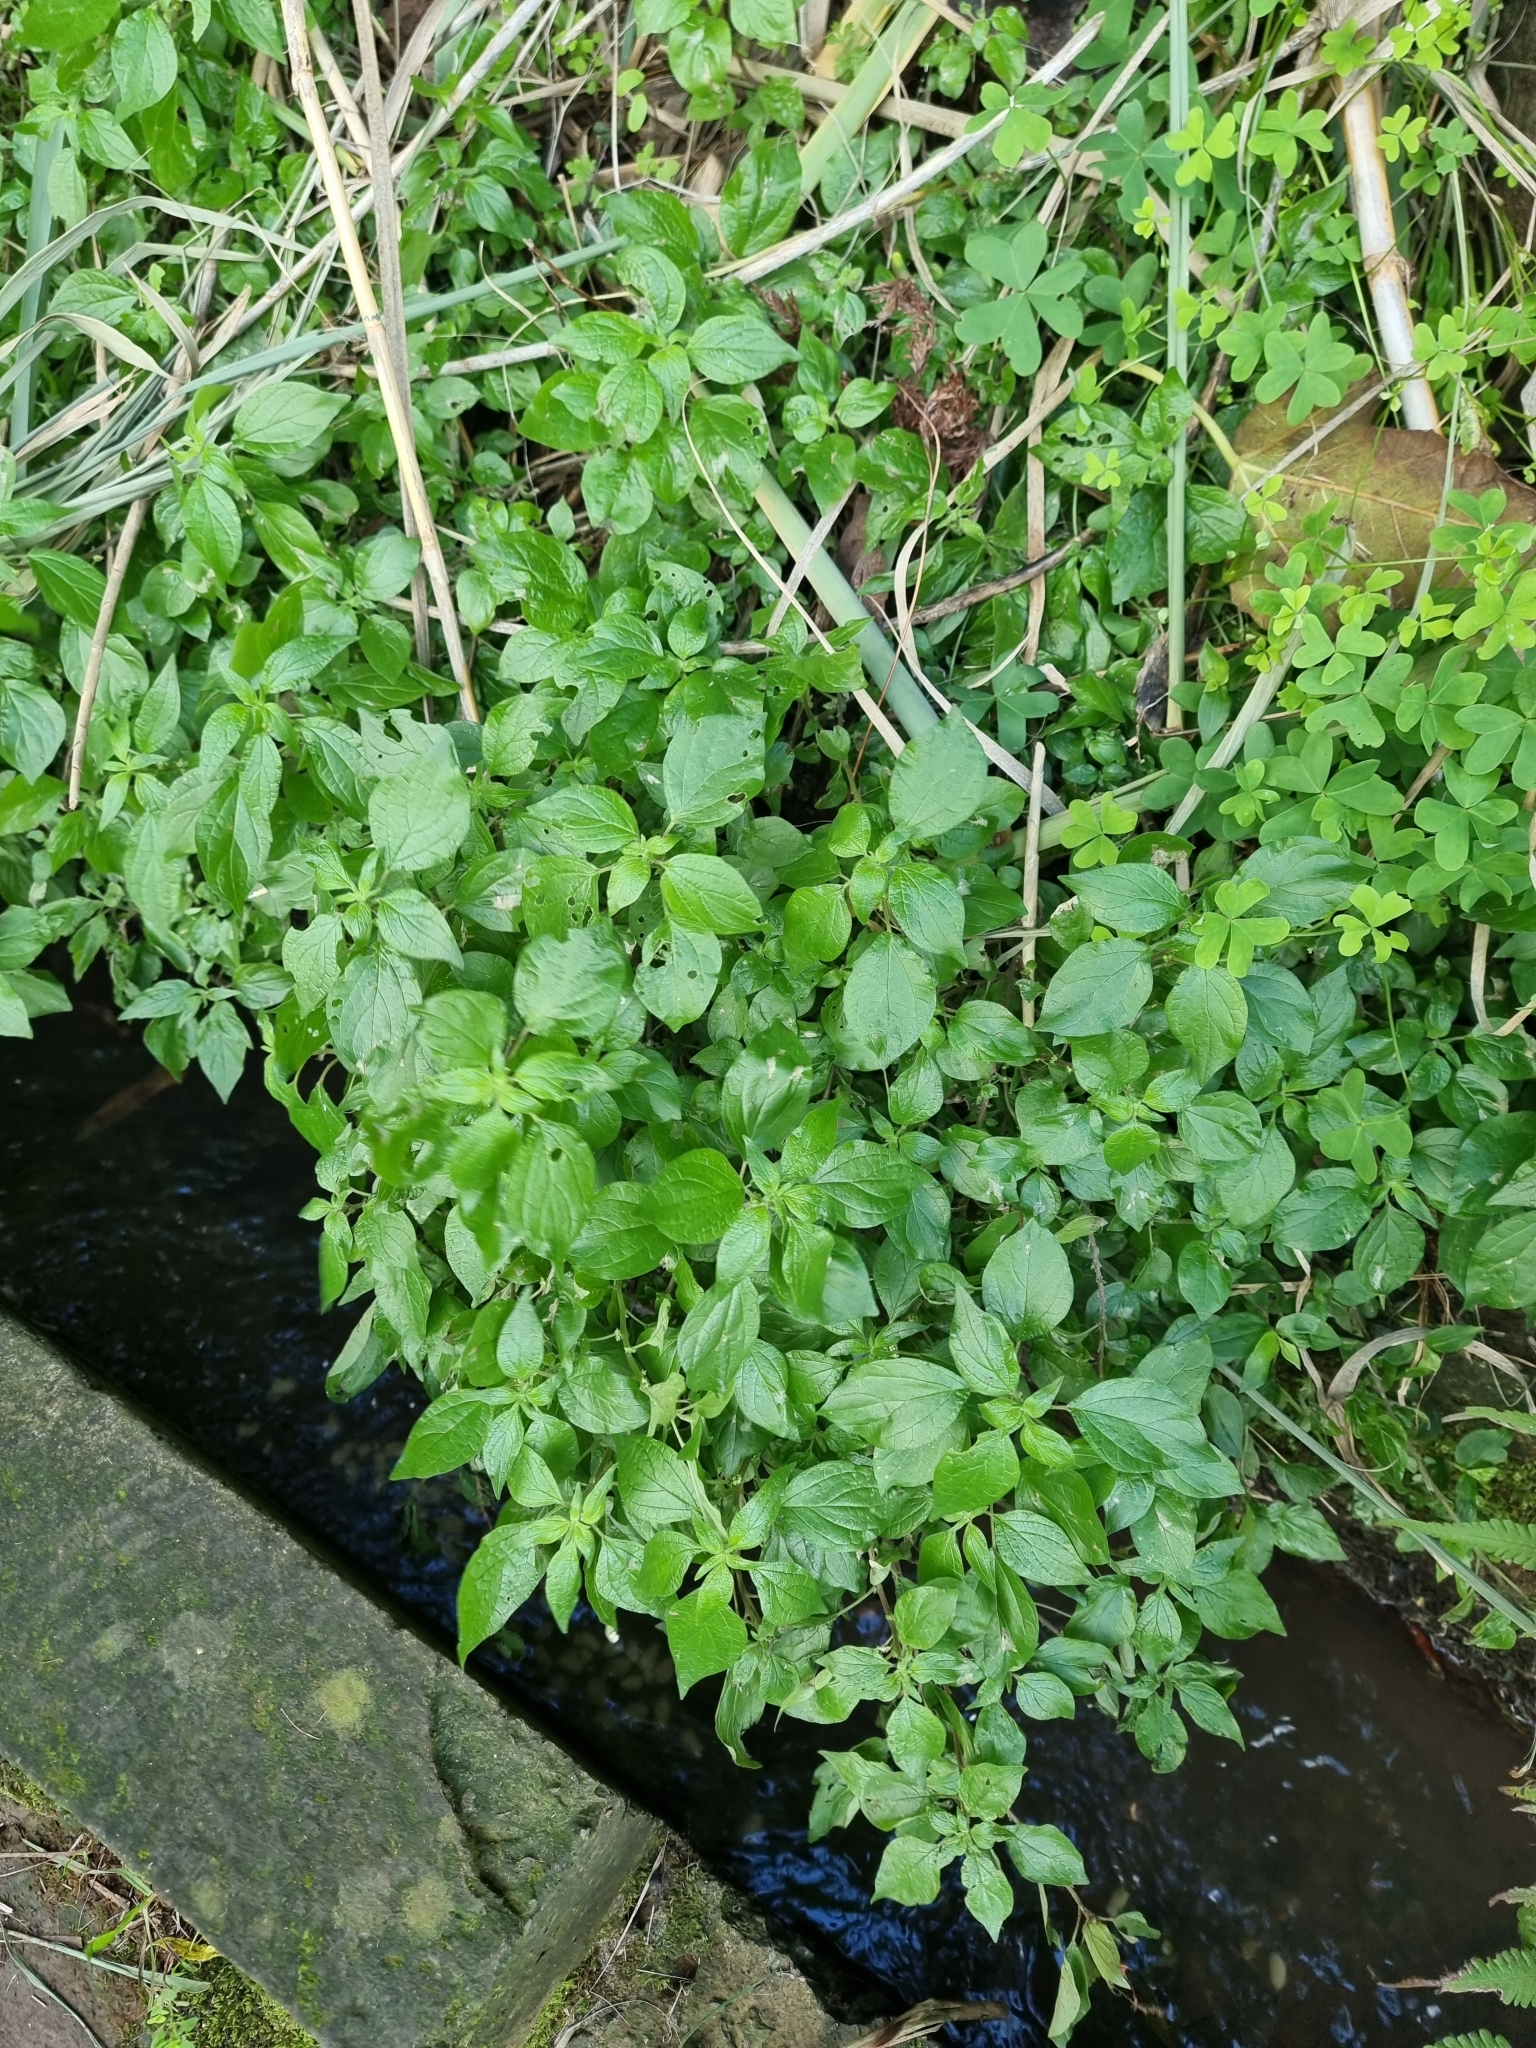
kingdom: Plantae
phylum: Tracheophyta
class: Magnoliopsida
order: Rosales
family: Urticaceae
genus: Parietaria
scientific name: Parietaria judaica
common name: Pellitory-of-the-wall
